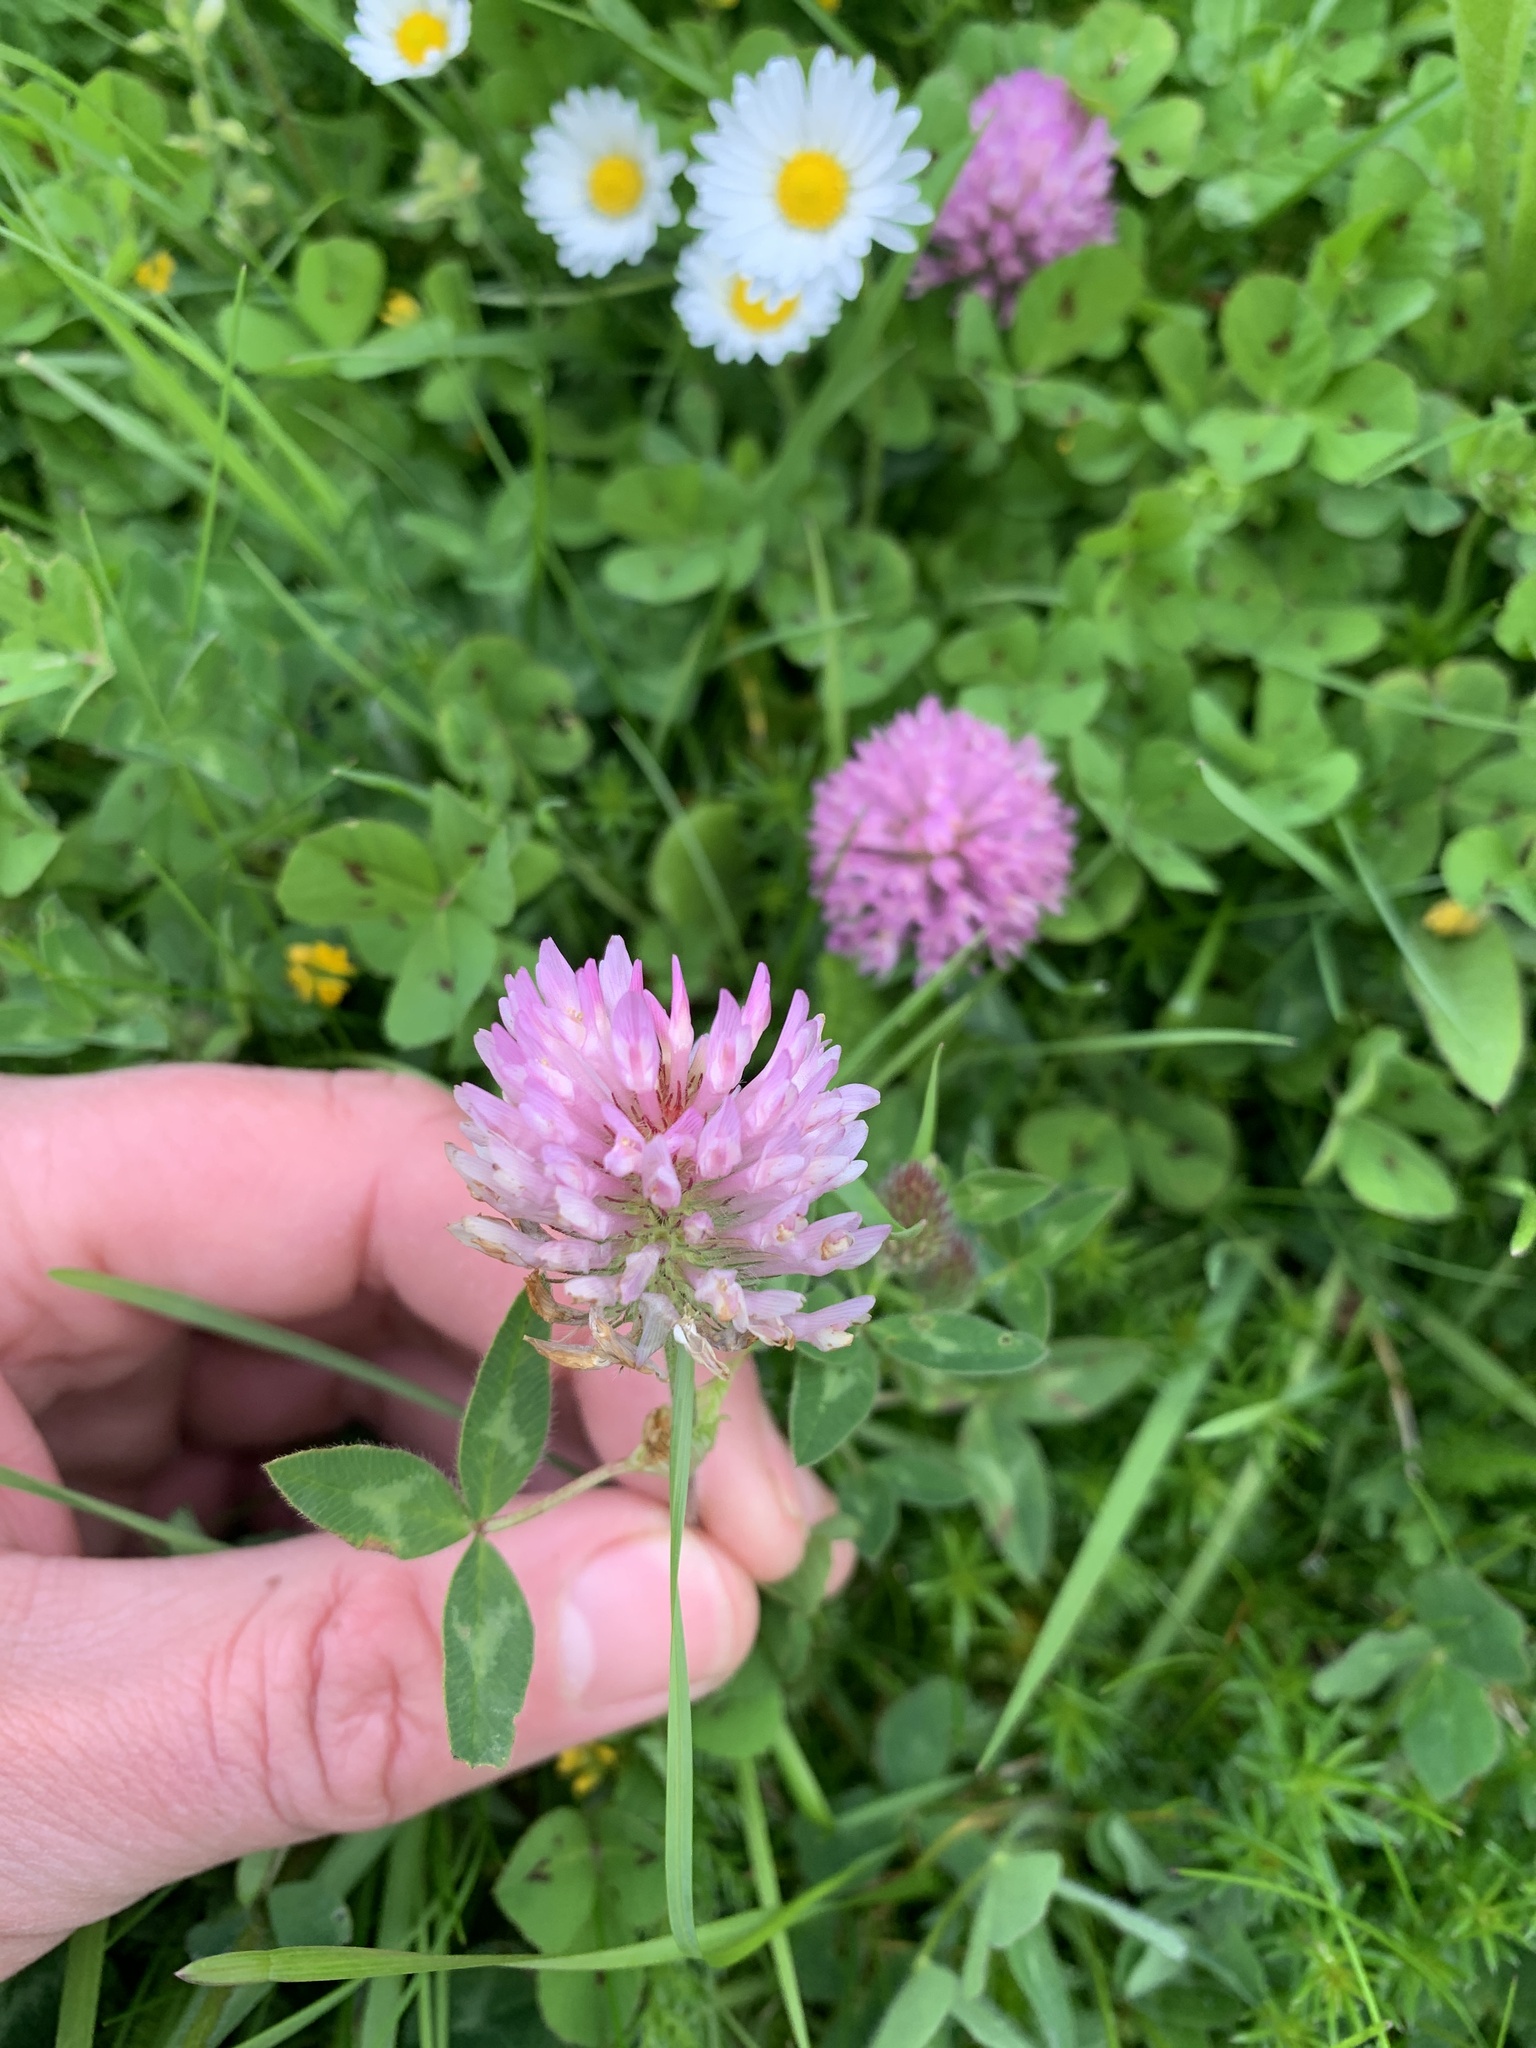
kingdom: Plantae
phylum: Tracheophyta
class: Magnoliopsida
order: Fabales
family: Fabaceae
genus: Trifolium
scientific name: Trifolium pratense
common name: Red clover
